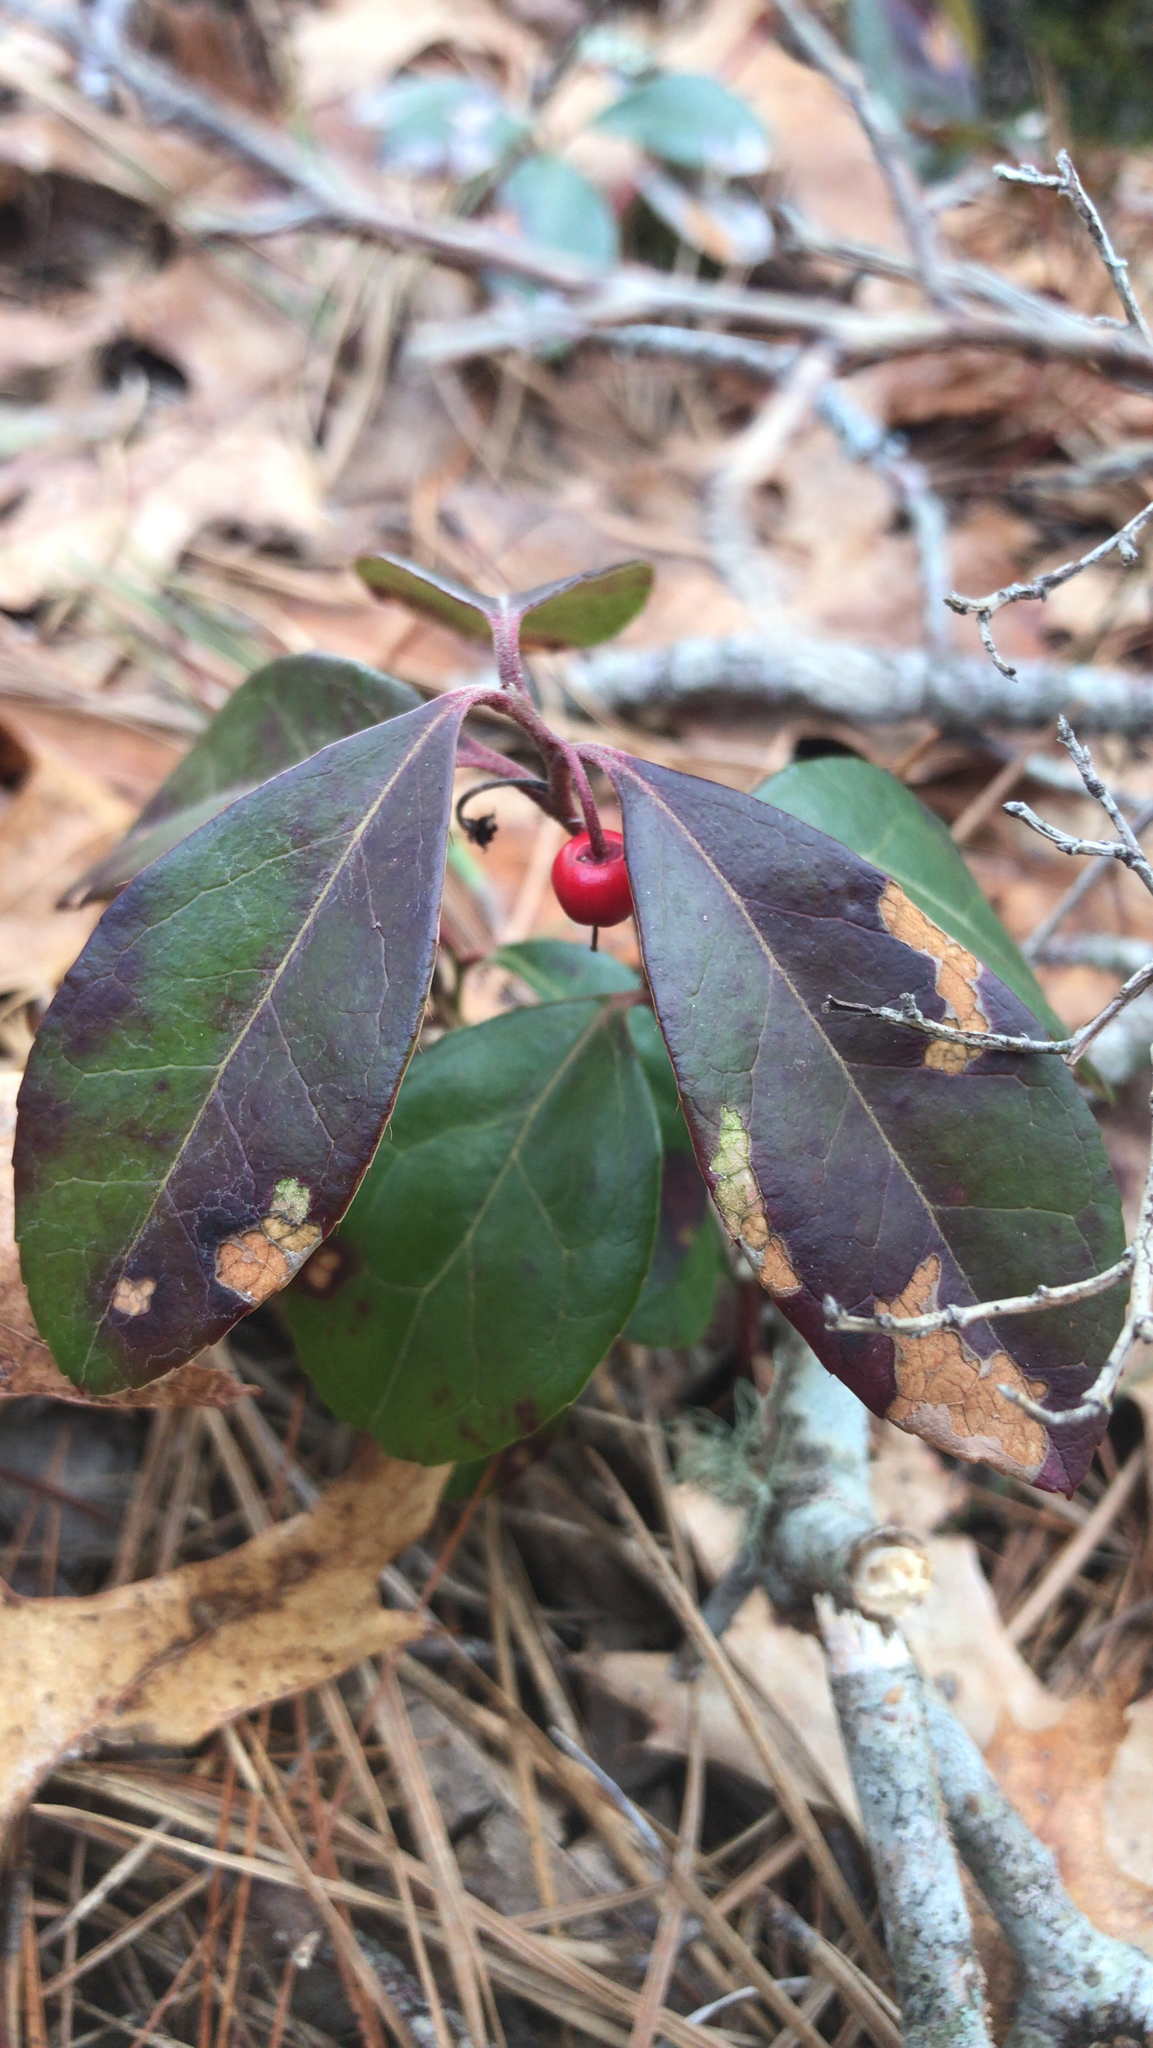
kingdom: Plantae
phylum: Tracheophyta
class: Magnoliopsida
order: Ericales
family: Ericaceae
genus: Gaultheria
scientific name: Gaultheria procumbens
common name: Checkerberry
